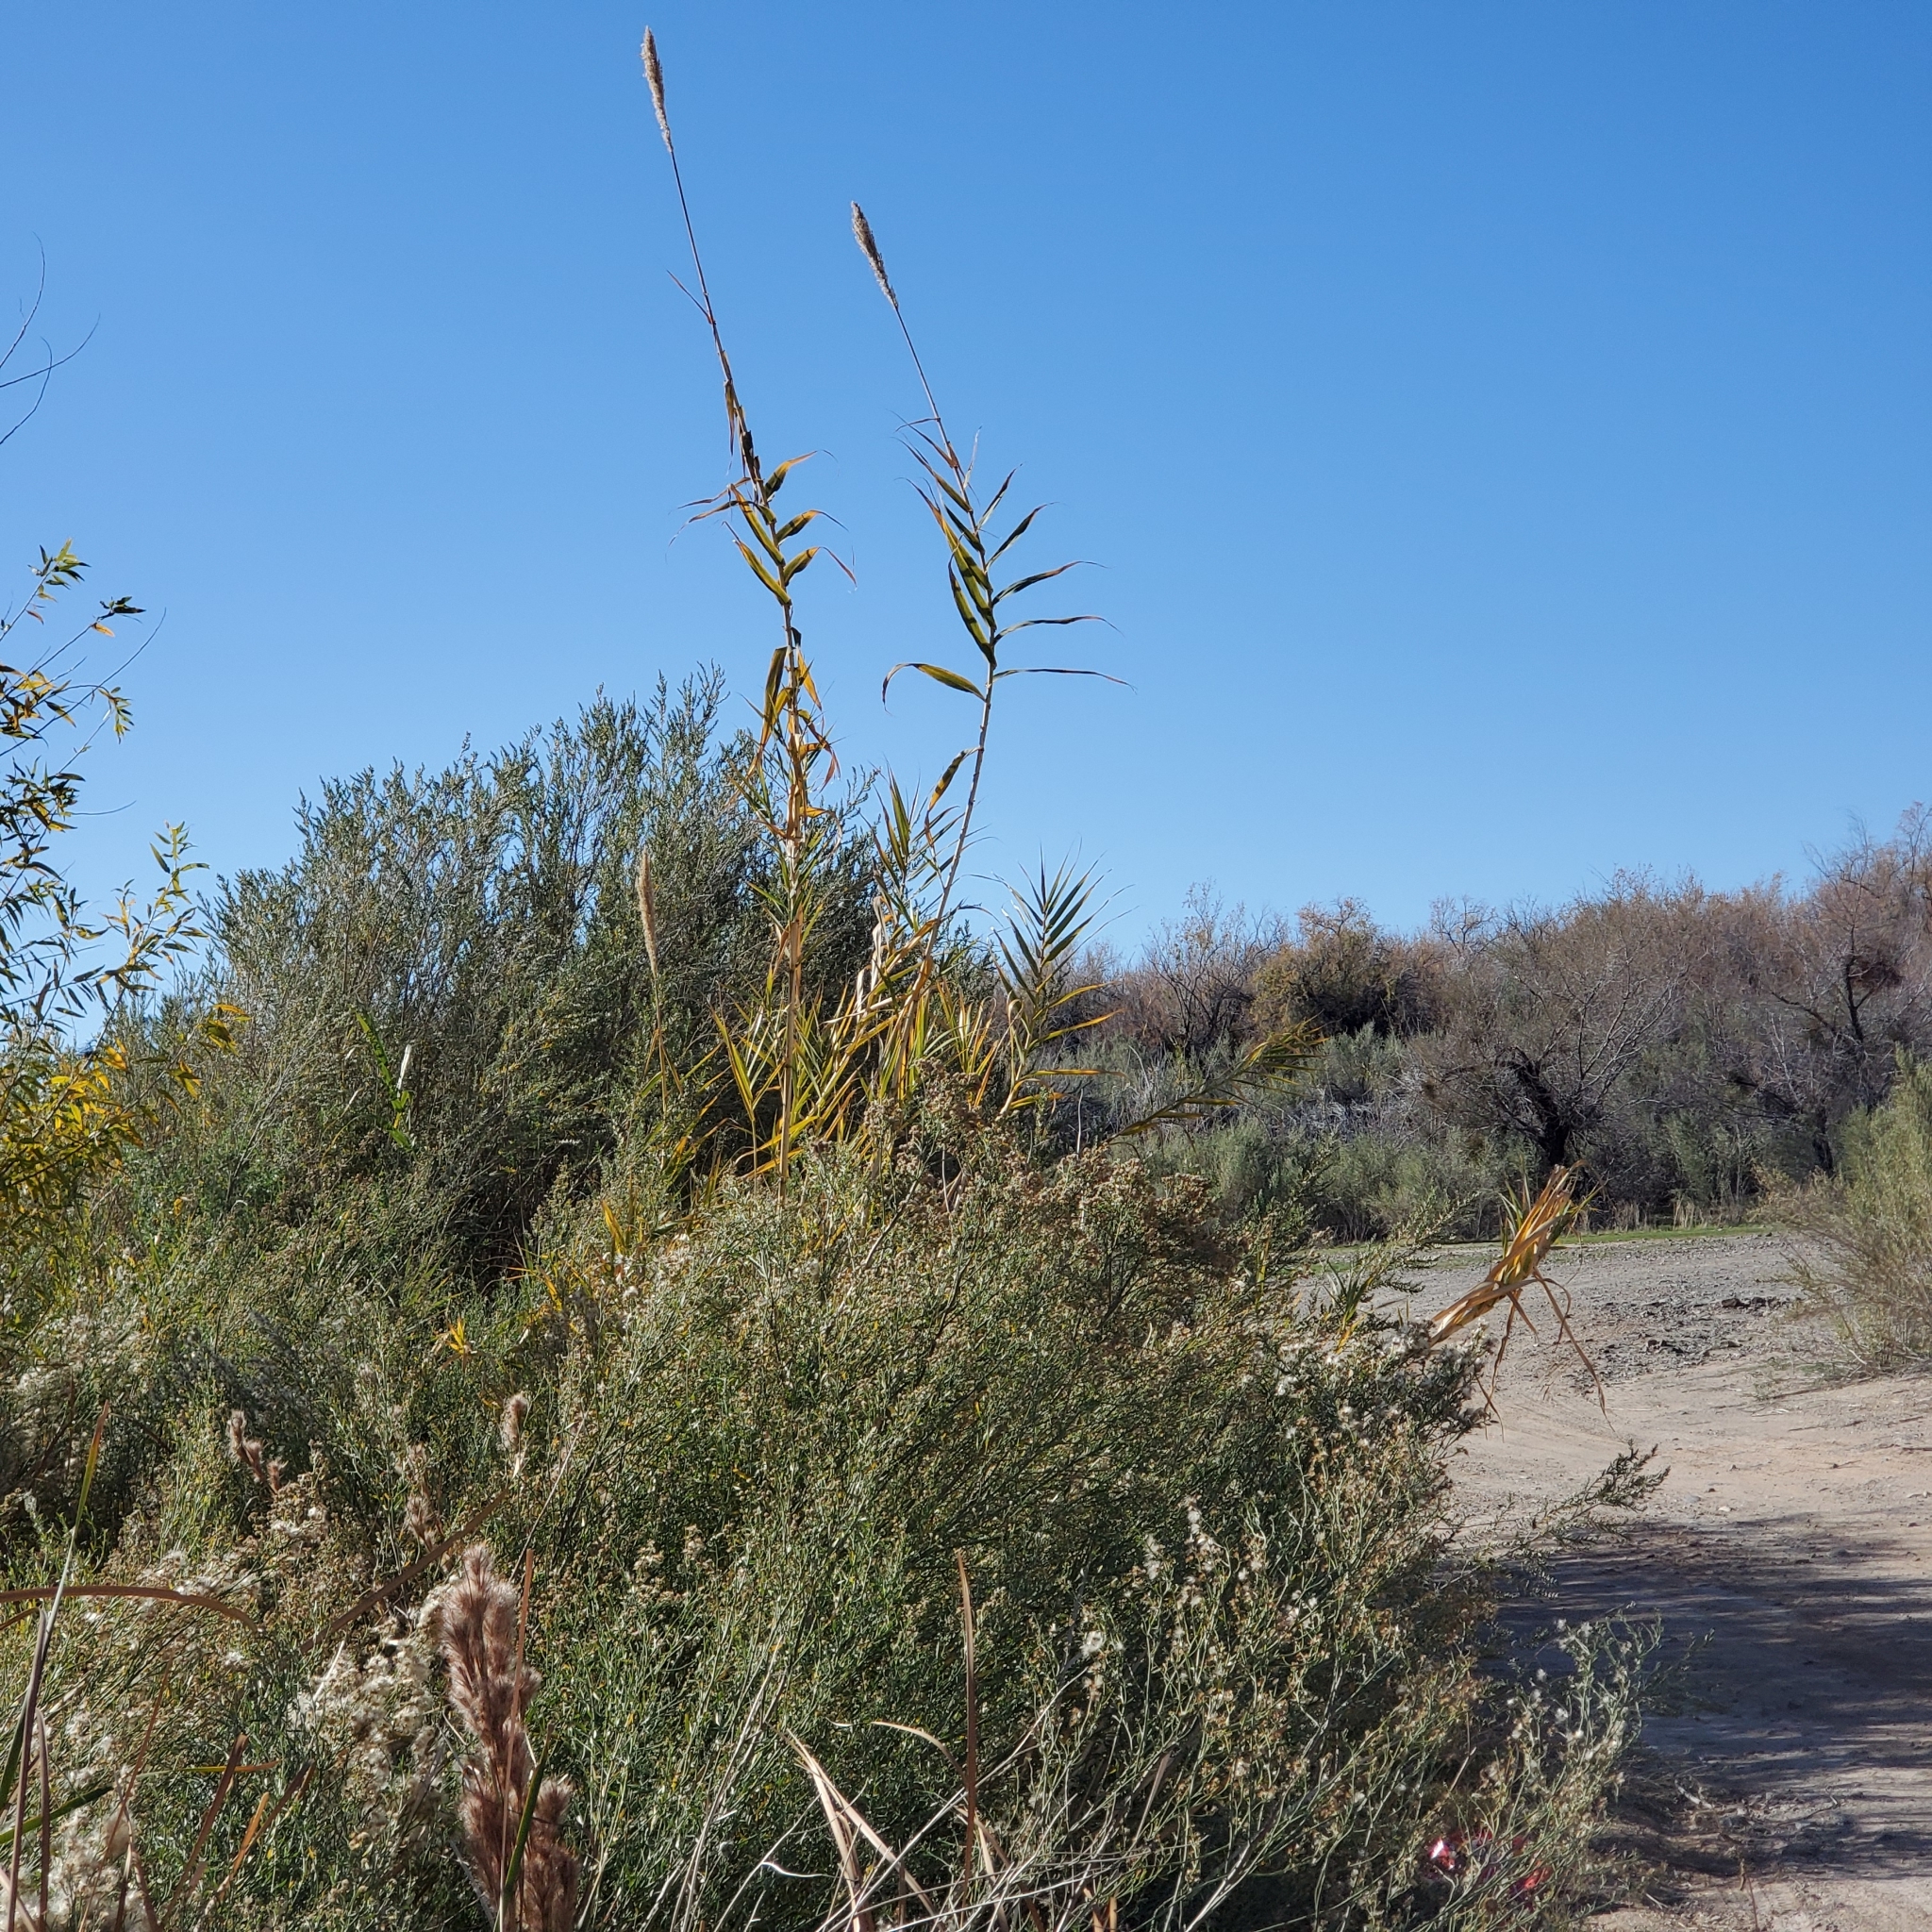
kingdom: Plantae
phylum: Tracheophyta
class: Liliopsida
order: Poales
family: Poaceae
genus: Arundo
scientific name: Arundo donax
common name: Giant reed
